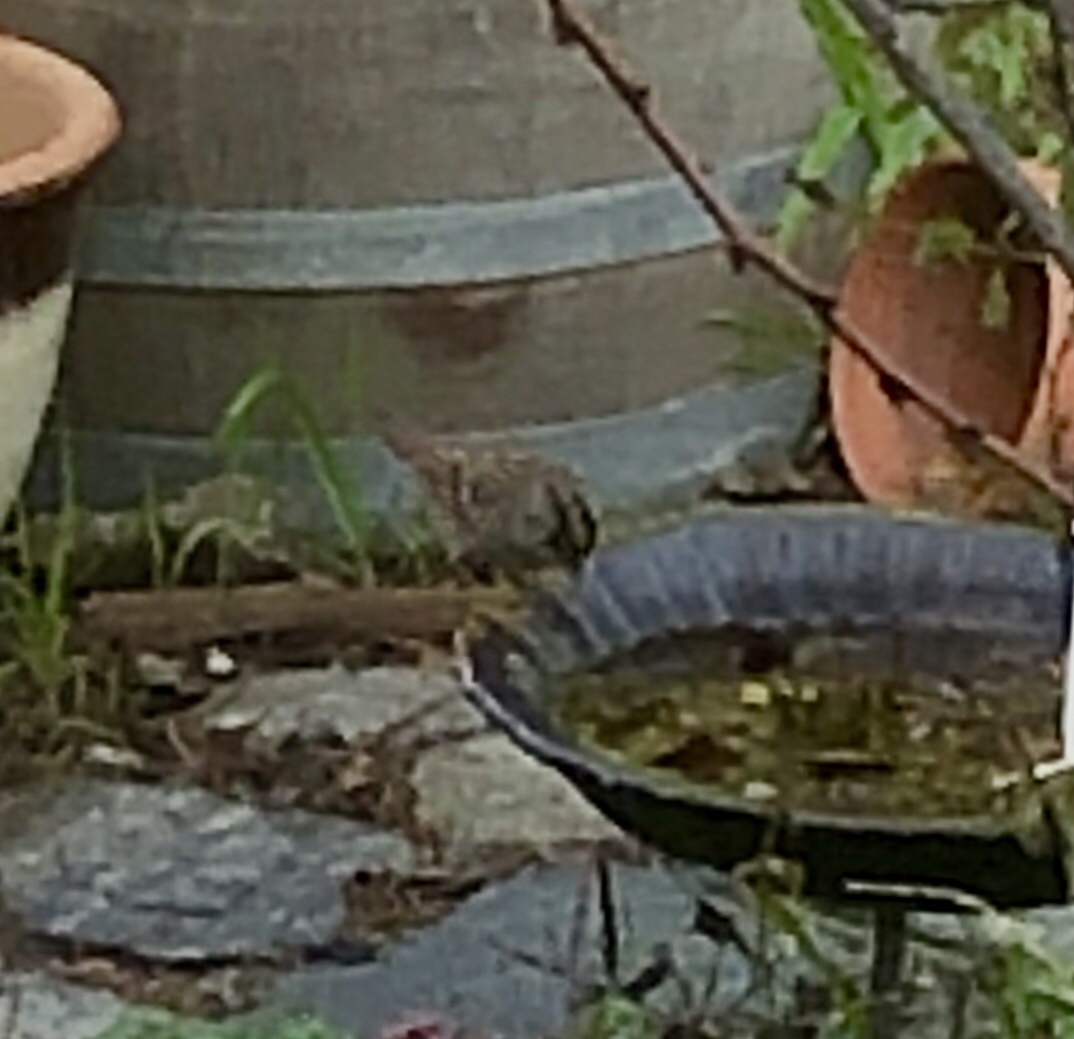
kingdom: Animalia
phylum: Chordata
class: Aves
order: Passeriformes
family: Passerellidae
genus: Zonotrichia
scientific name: Zonotrichia atricapilla
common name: Golden-crowned sparrow
